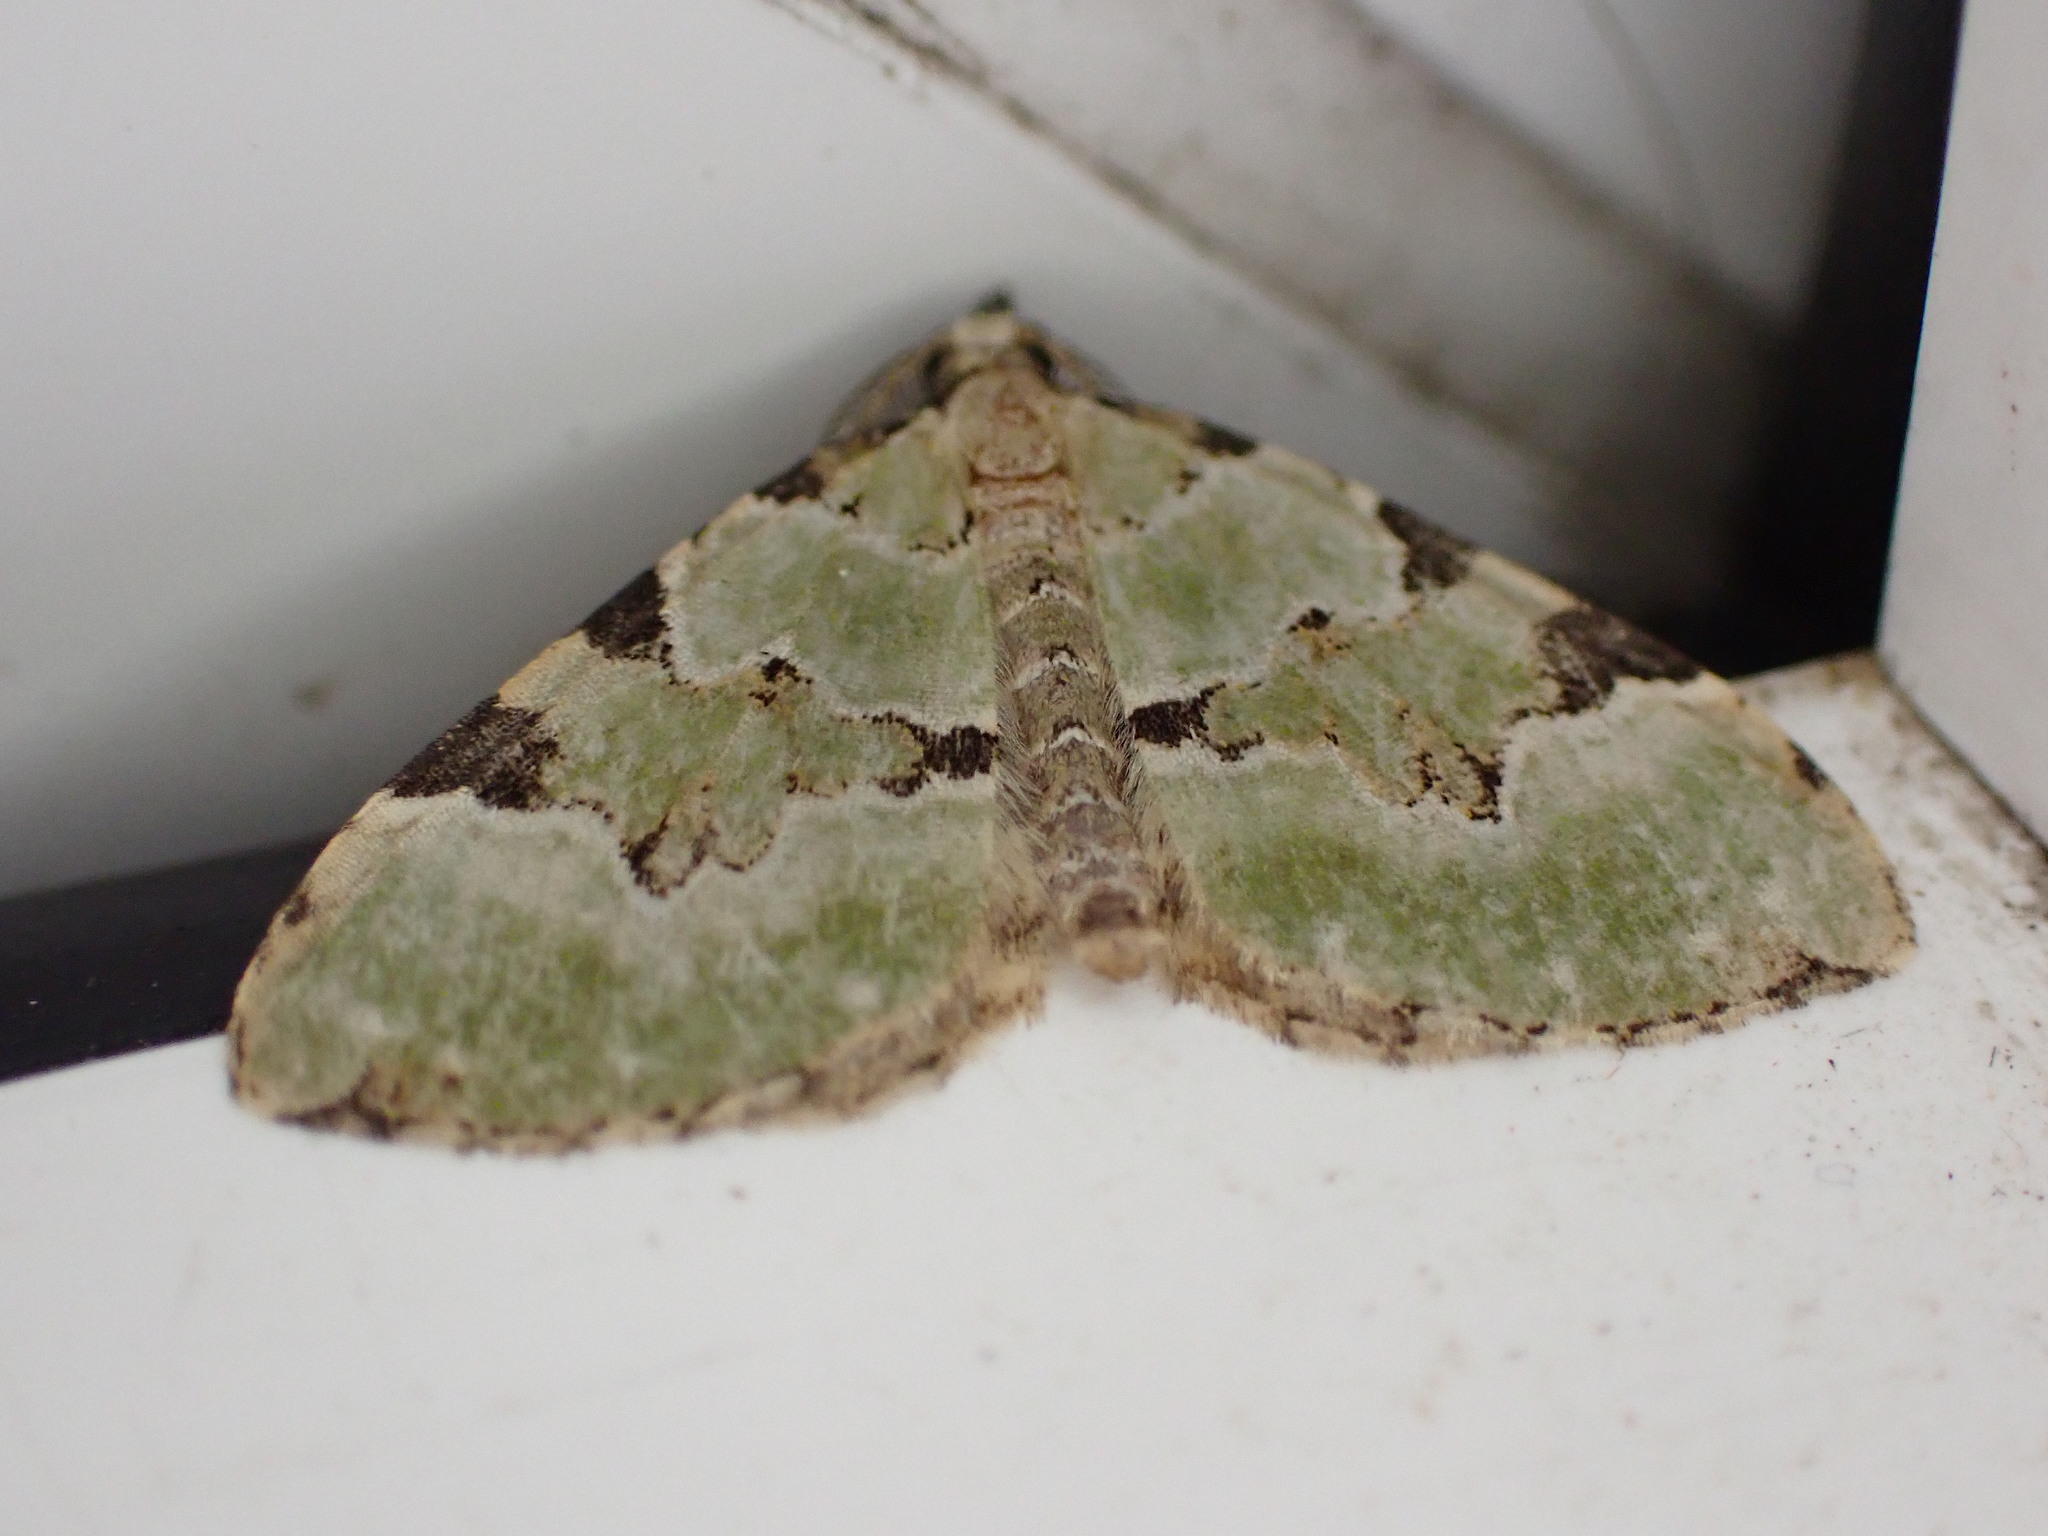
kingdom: Animalia
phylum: Arthropoda
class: Insecta
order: Lepidoptera
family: Geometridae
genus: Colostygia
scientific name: Colostygia pectinataria
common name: Green carpet
